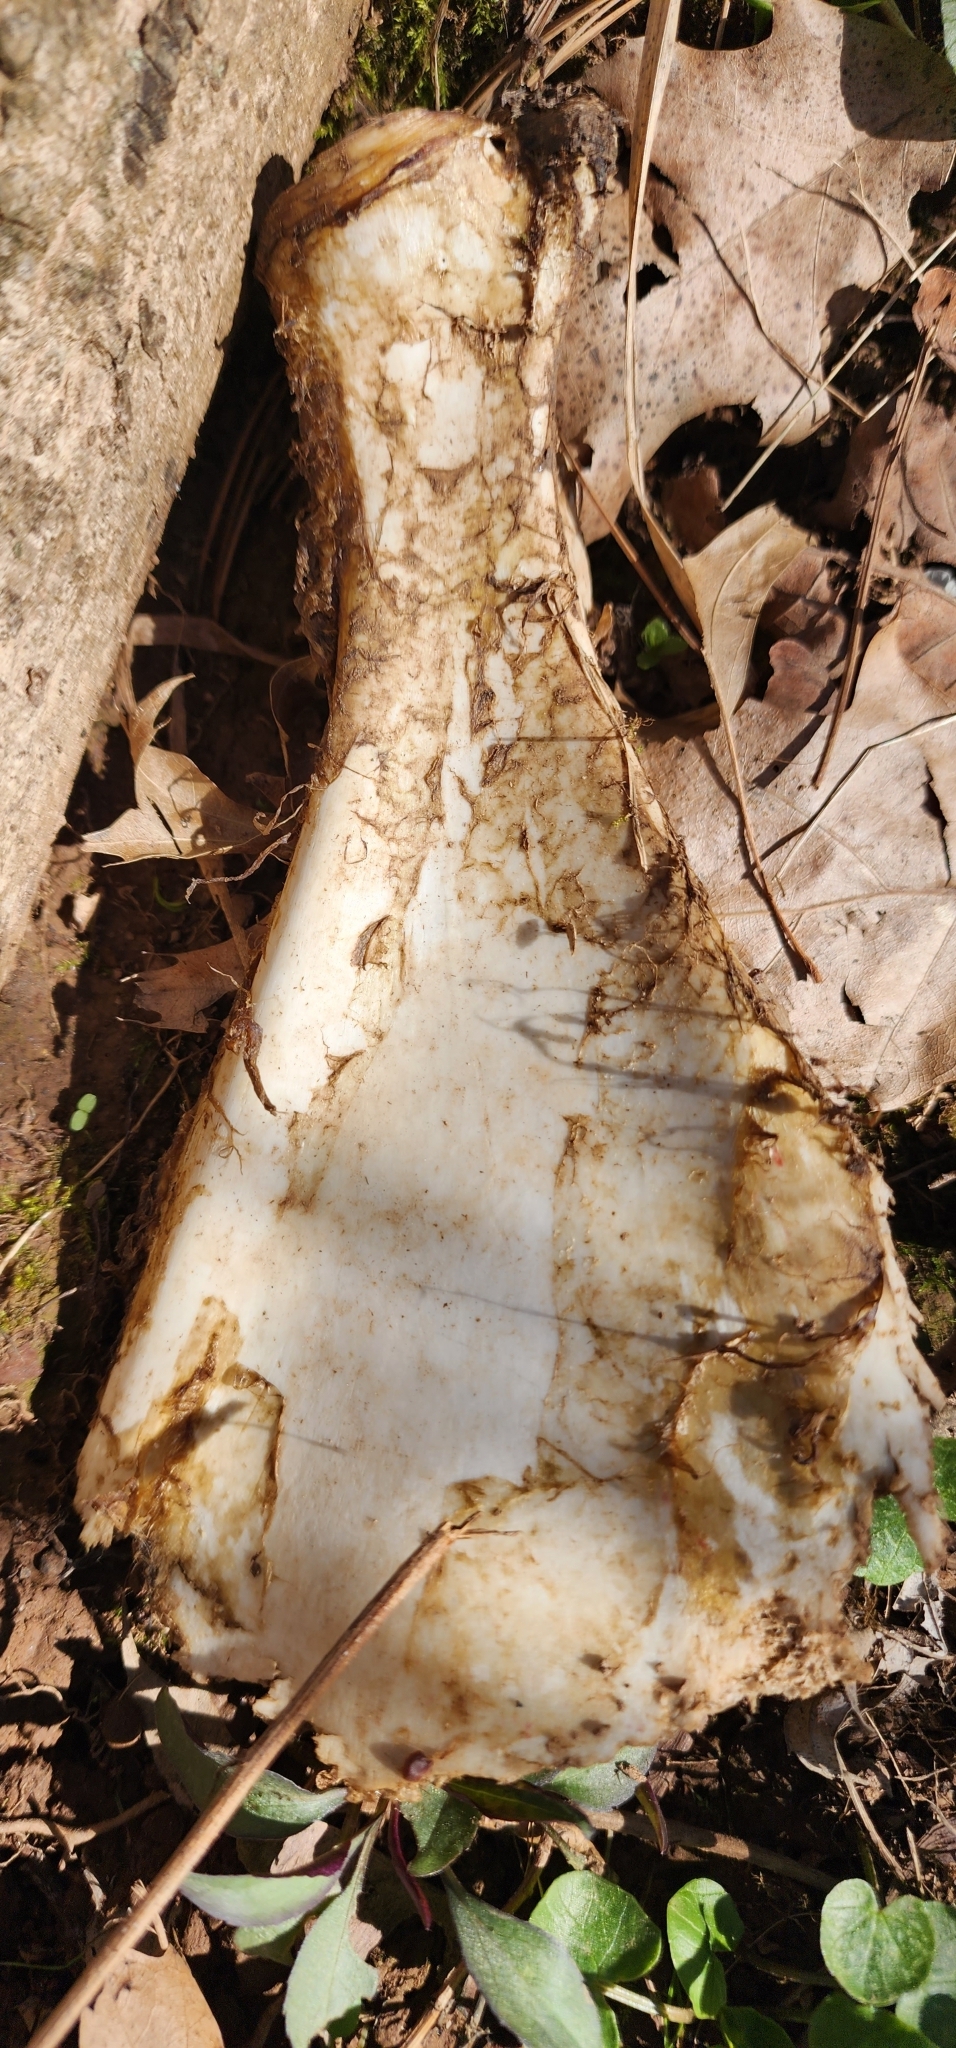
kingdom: Animalia
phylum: Chordata
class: Mammalia
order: Artiodactyla
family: Cervidae
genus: Odocoileus
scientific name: Odocoileus virginianus
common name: White-tailed deer
